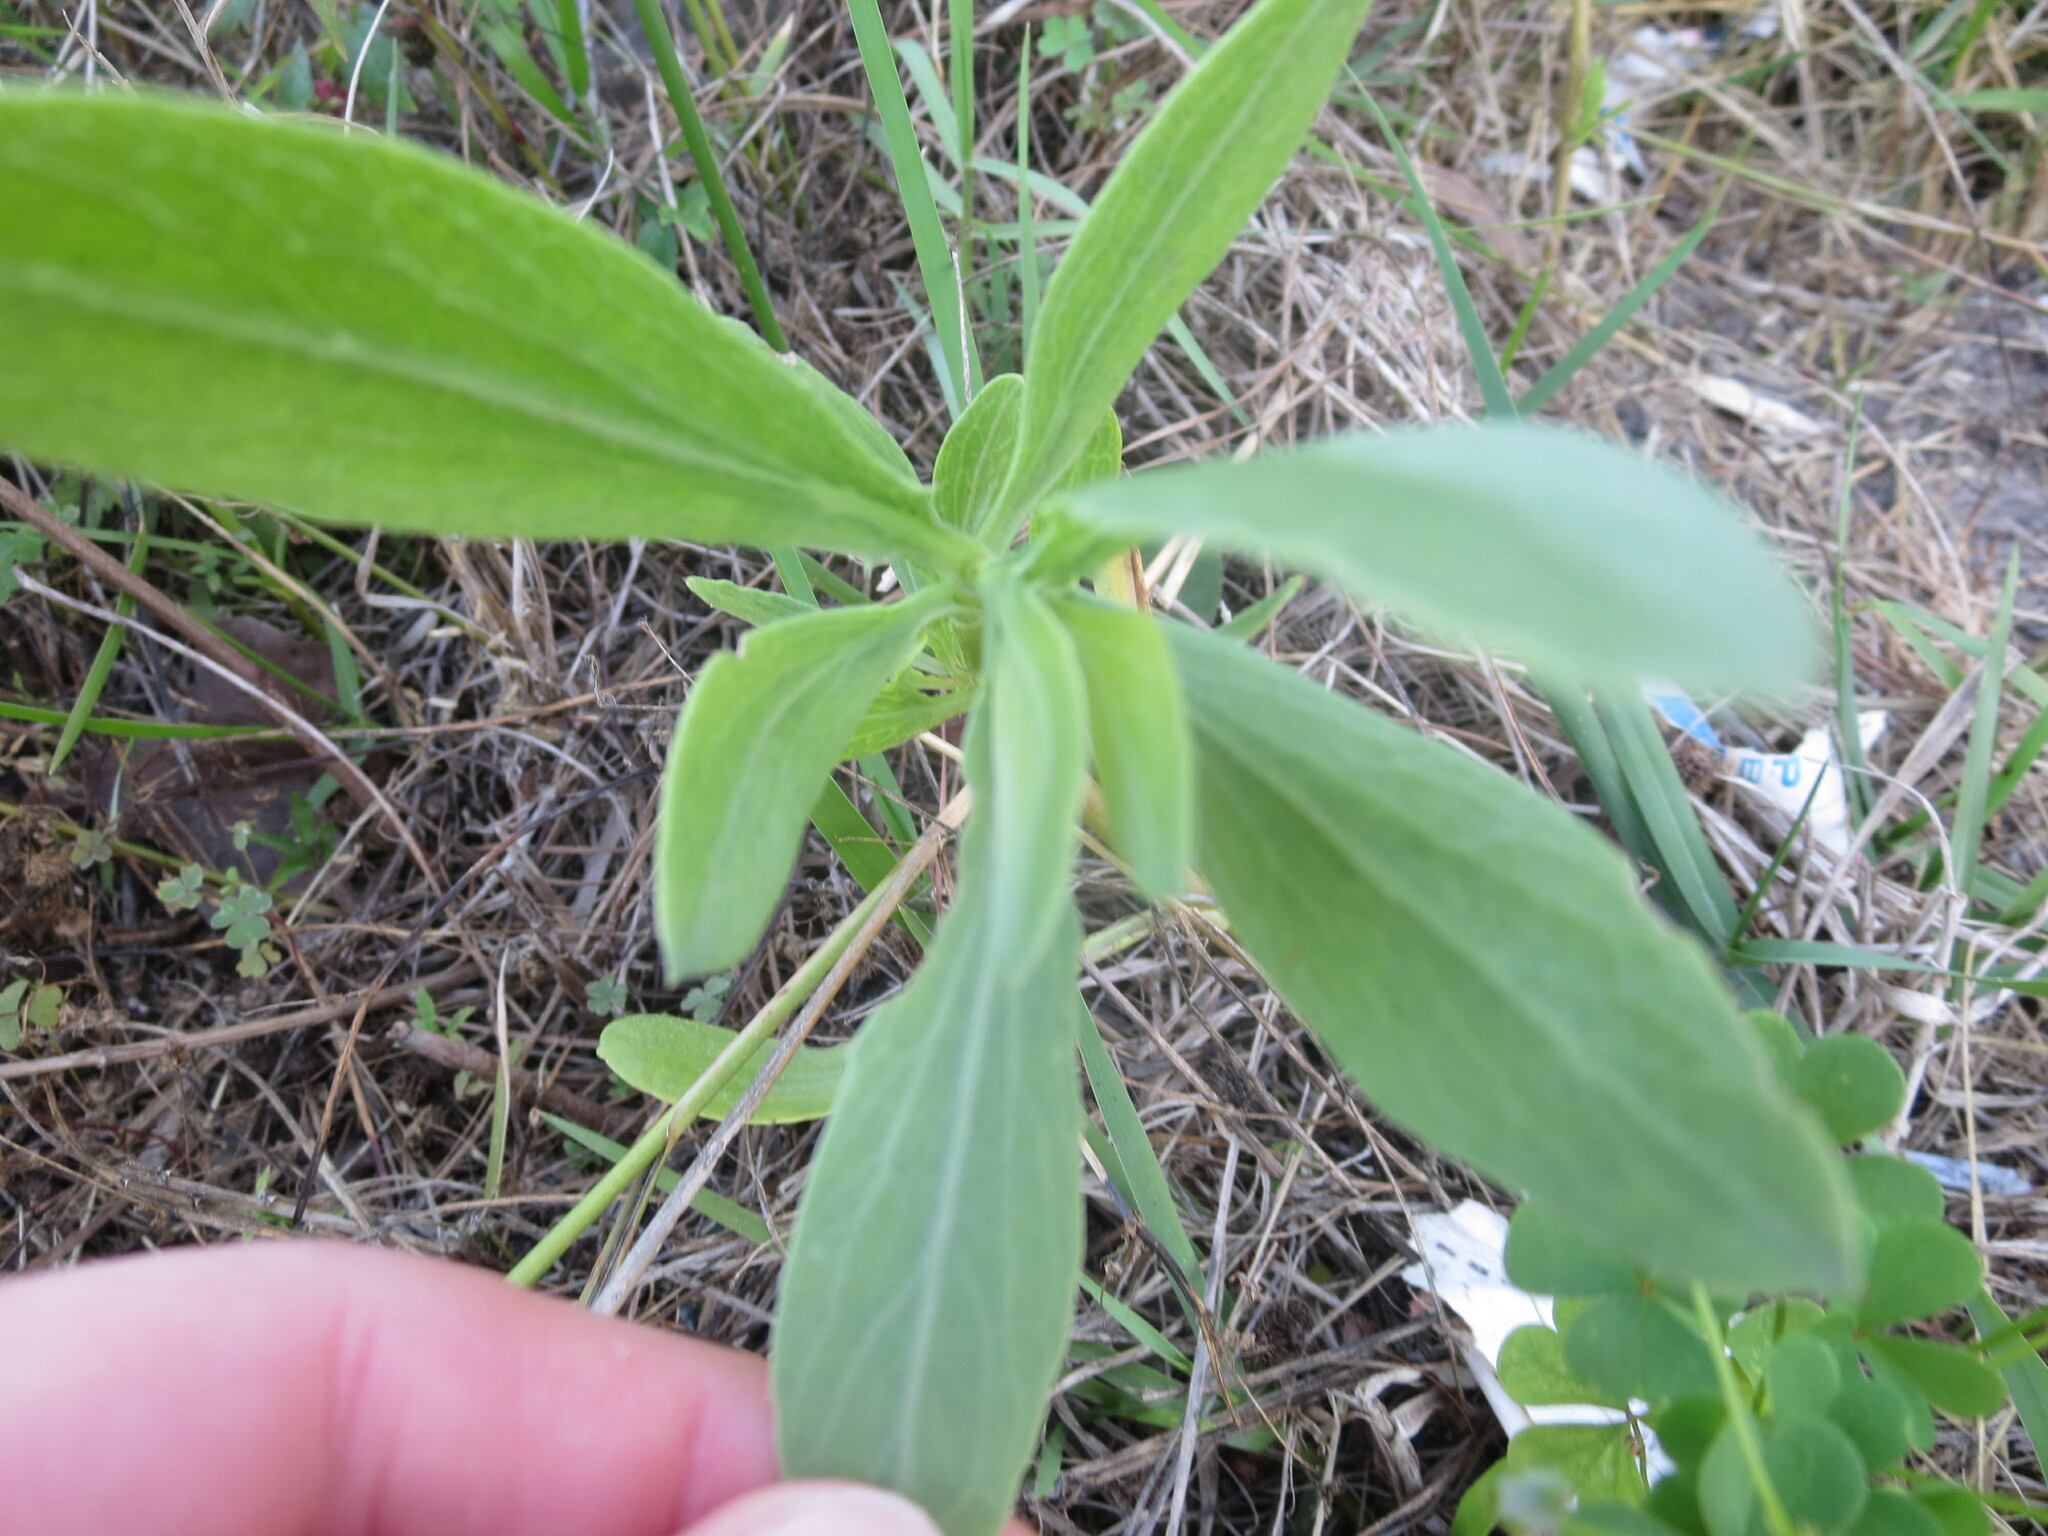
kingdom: Plantae
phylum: Tracheophyta
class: Magnoliopsida
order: Asterales
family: Asteraceae
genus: Borrichia
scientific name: Borrichia frutescens
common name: Sea oxeye
